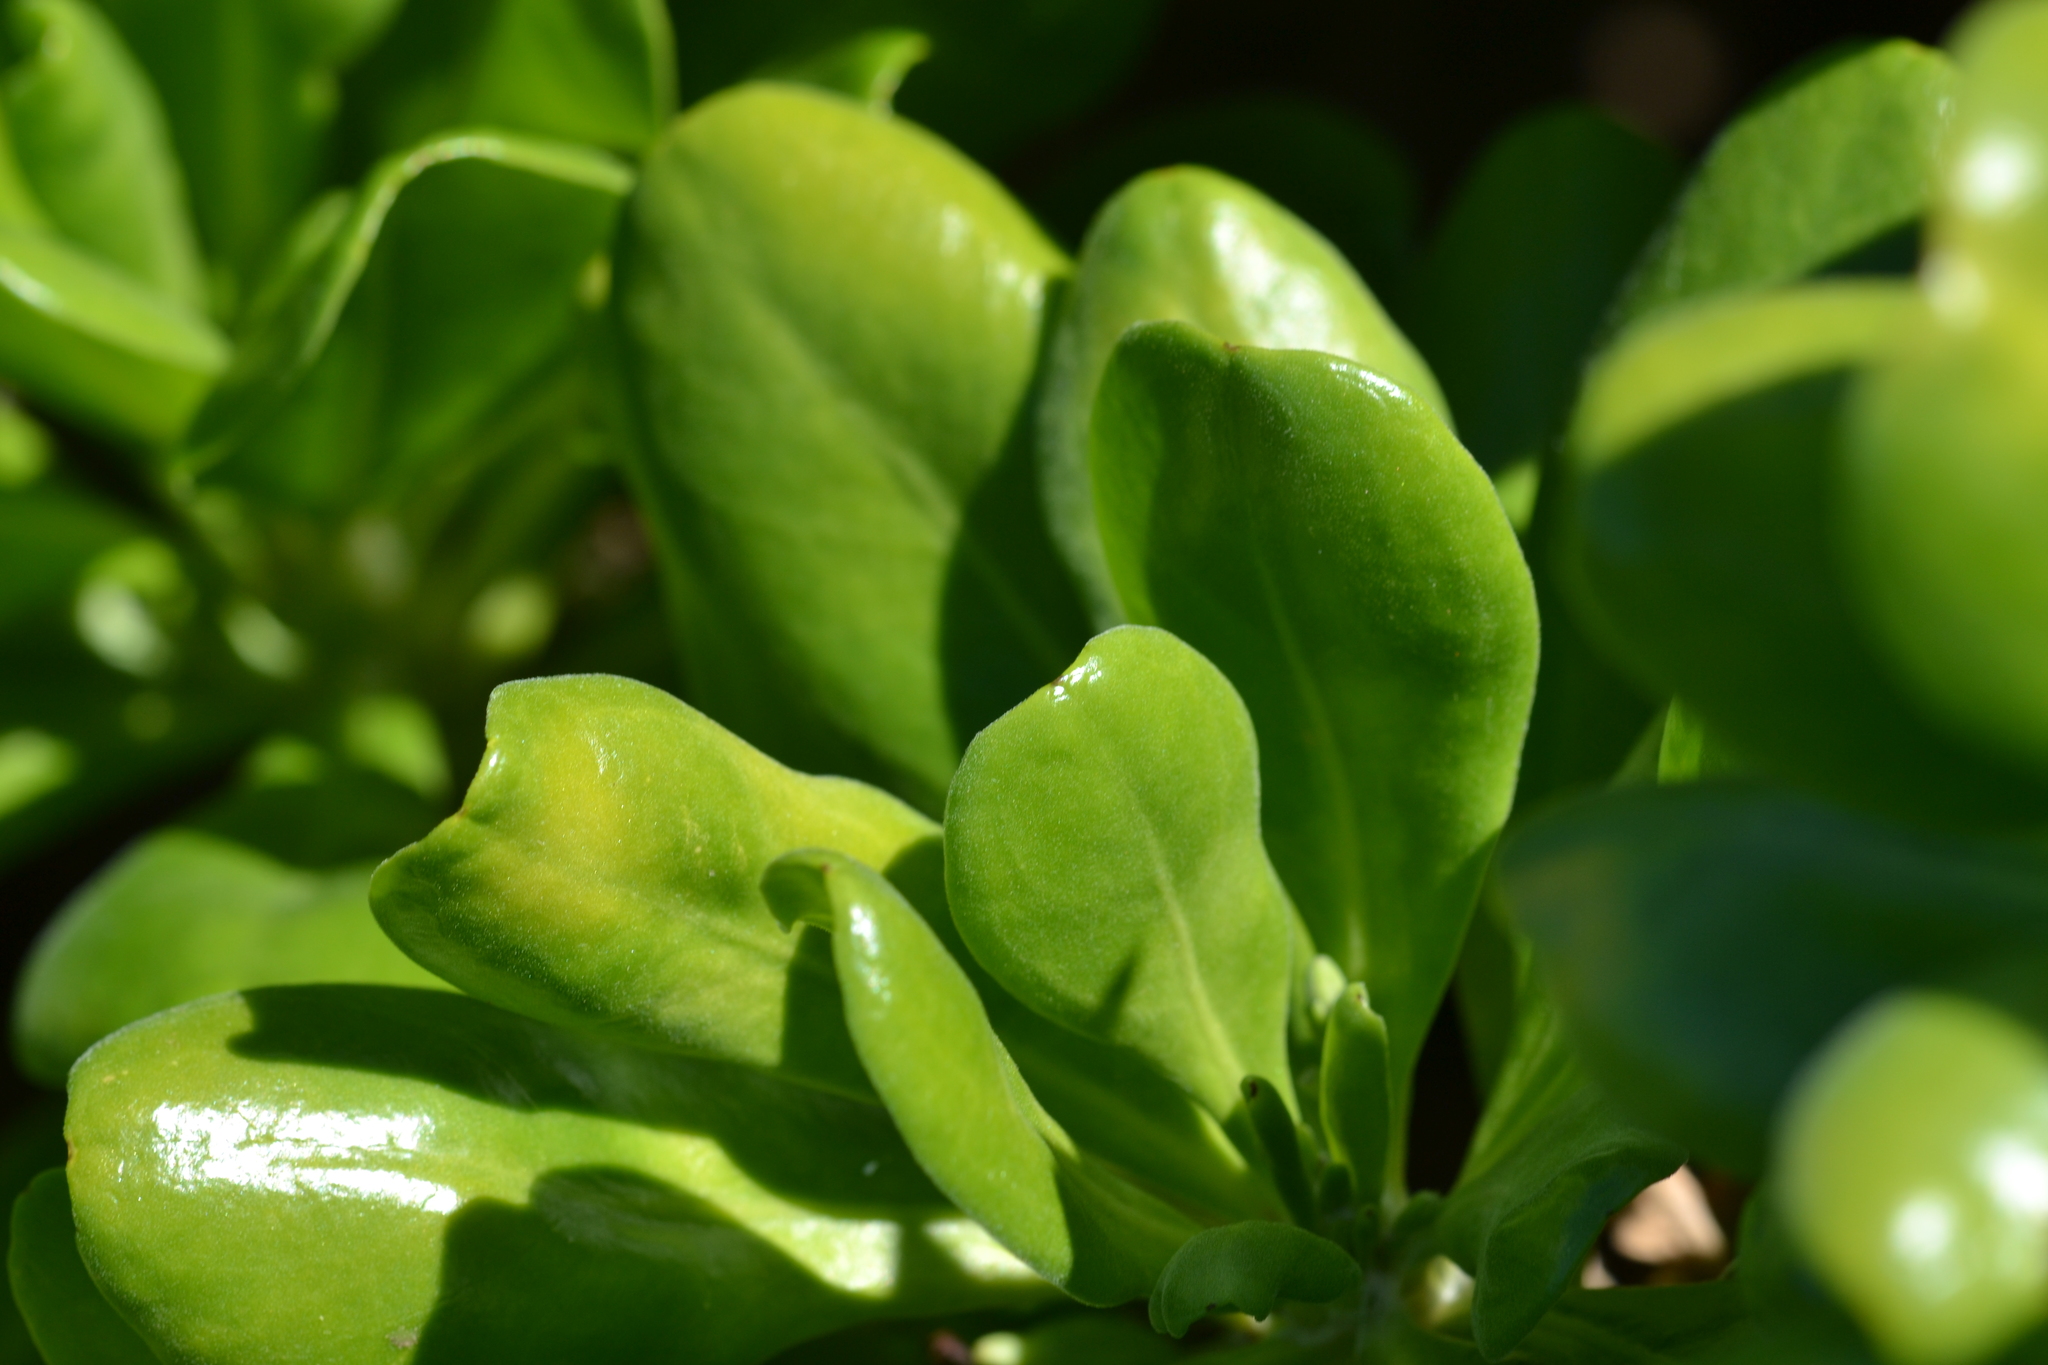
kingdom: Plantae
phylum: Tracheophyta
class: Magnoliopsida
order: Asterales
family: Goodeniaceae
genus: Scaevola
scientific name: Scaevola taccada
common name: Sea lettucetree
